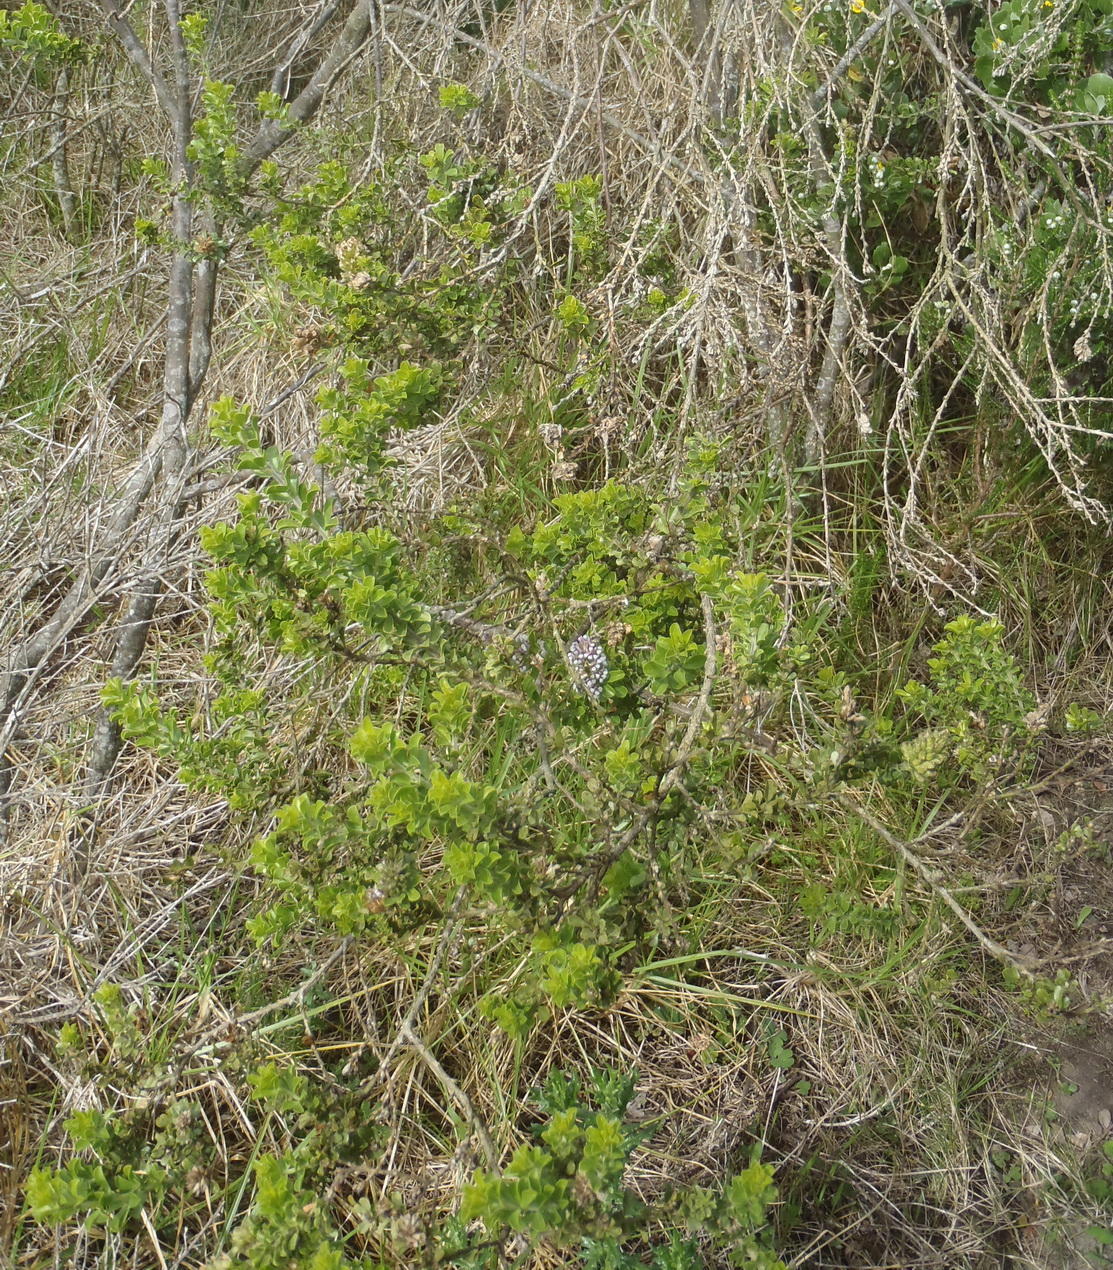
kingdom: Plantae
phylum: Tracheophyta
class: Magnoliopsida
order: Fabales
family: Fabaceae
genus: Psoralea
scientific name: Psoralea stachyera
